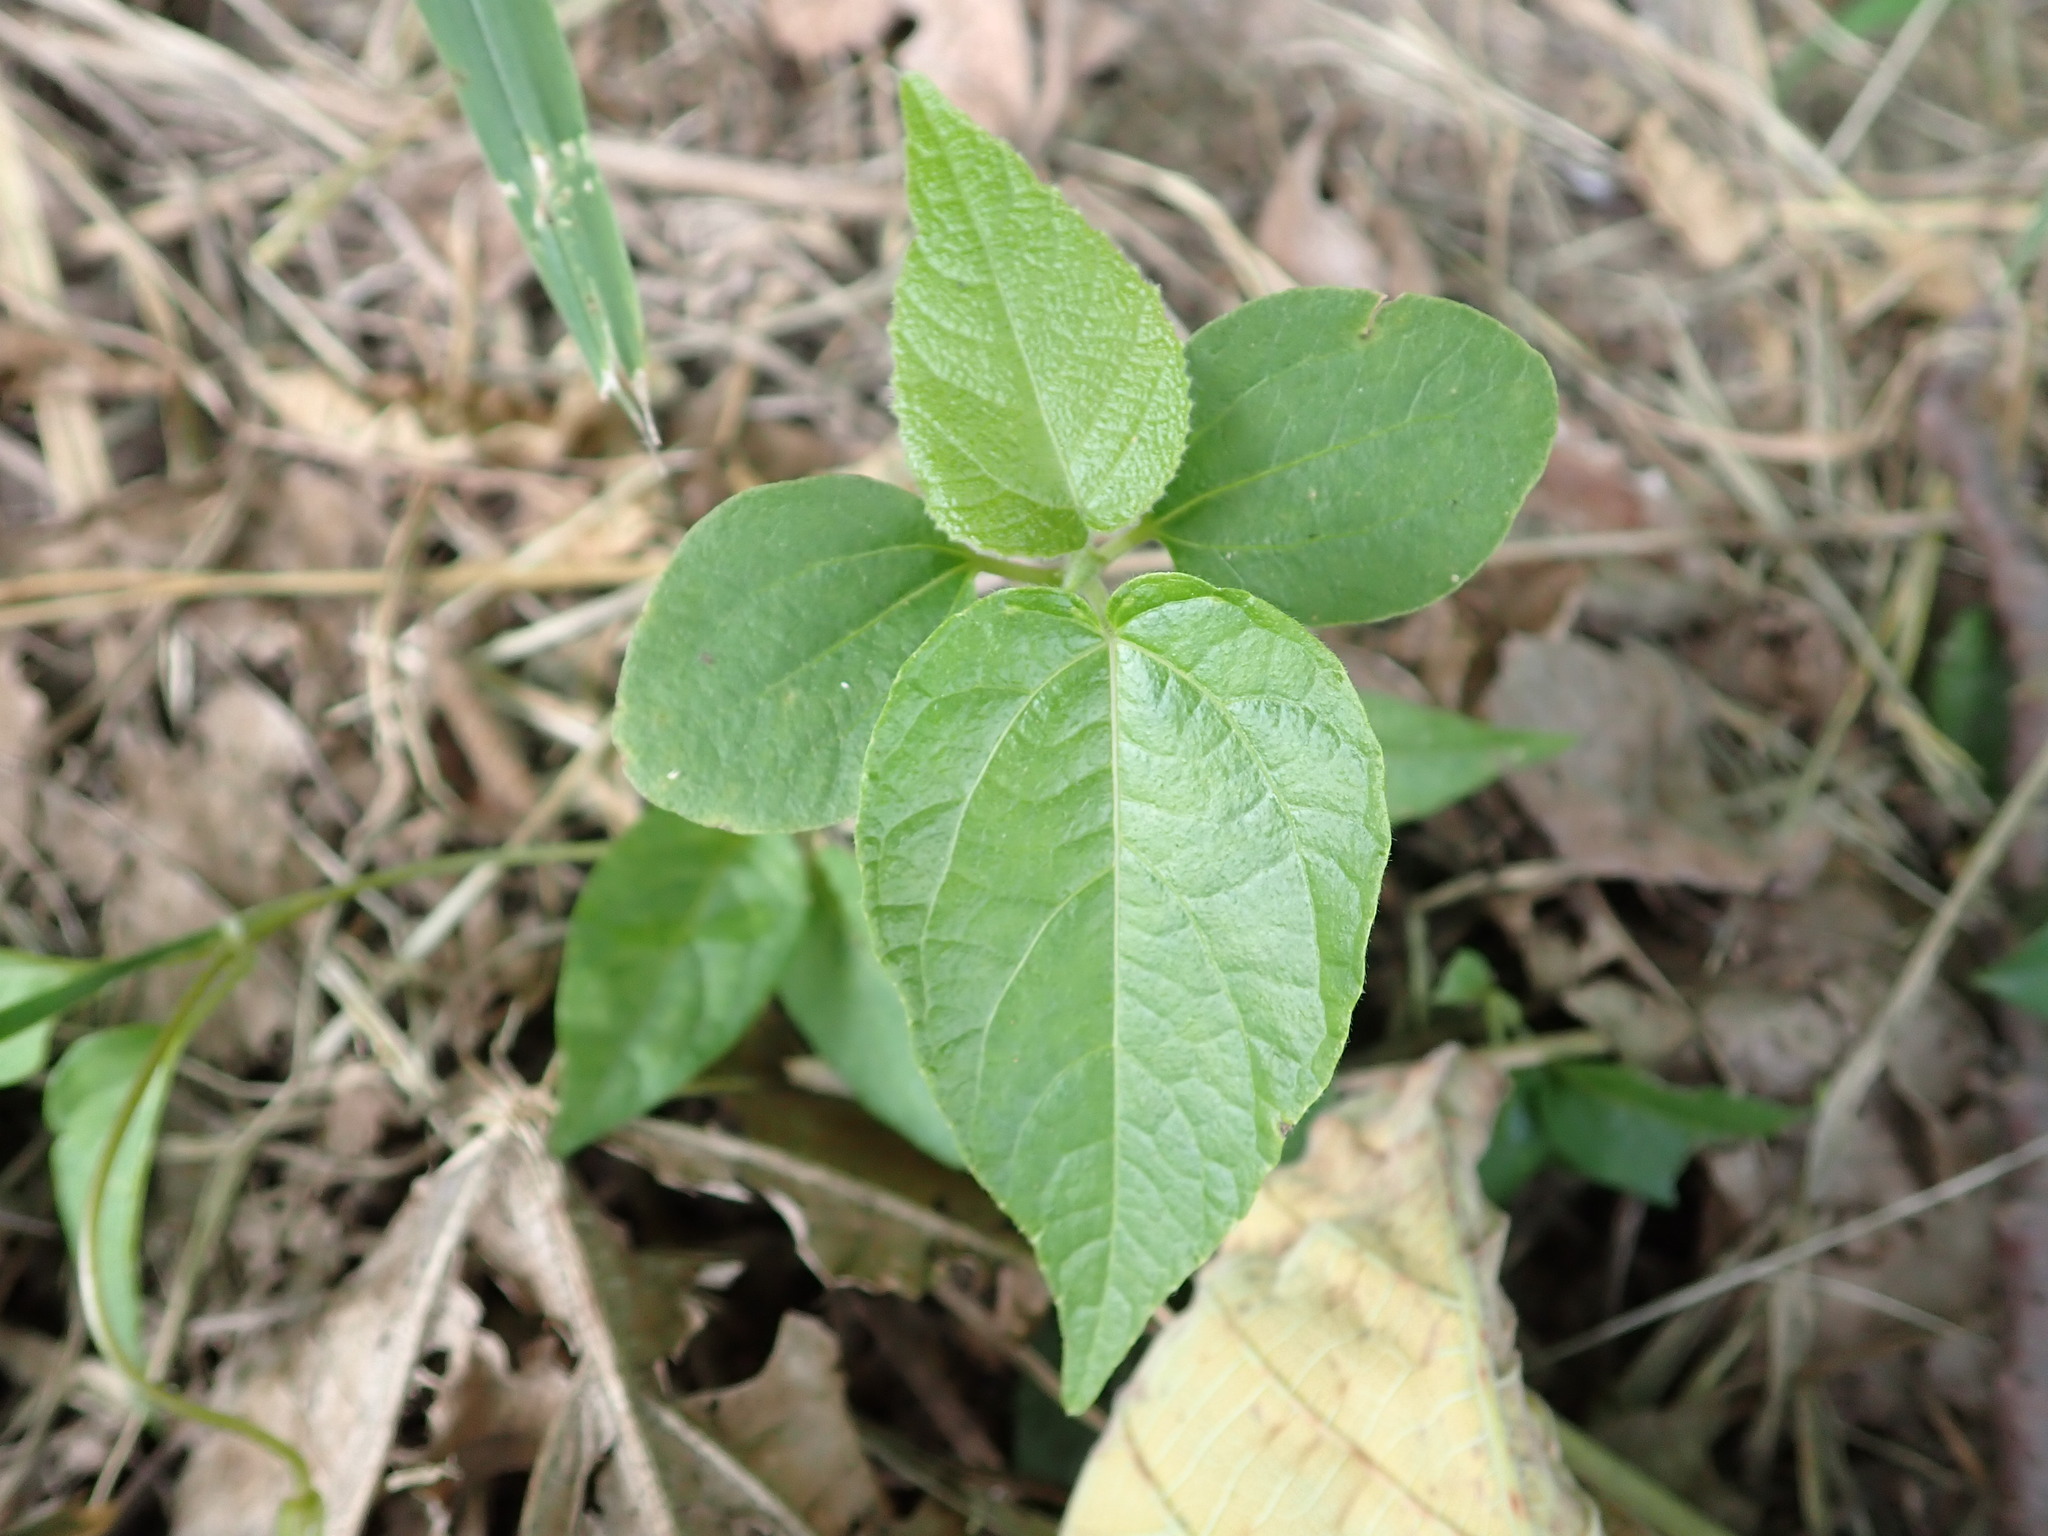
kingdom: Plantae
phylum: Tracheophyta
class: Magnoliopsida
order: Rosales
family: Cannabaceae
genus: Trema
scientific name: Trema orientale
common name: Indian charcoal tree
